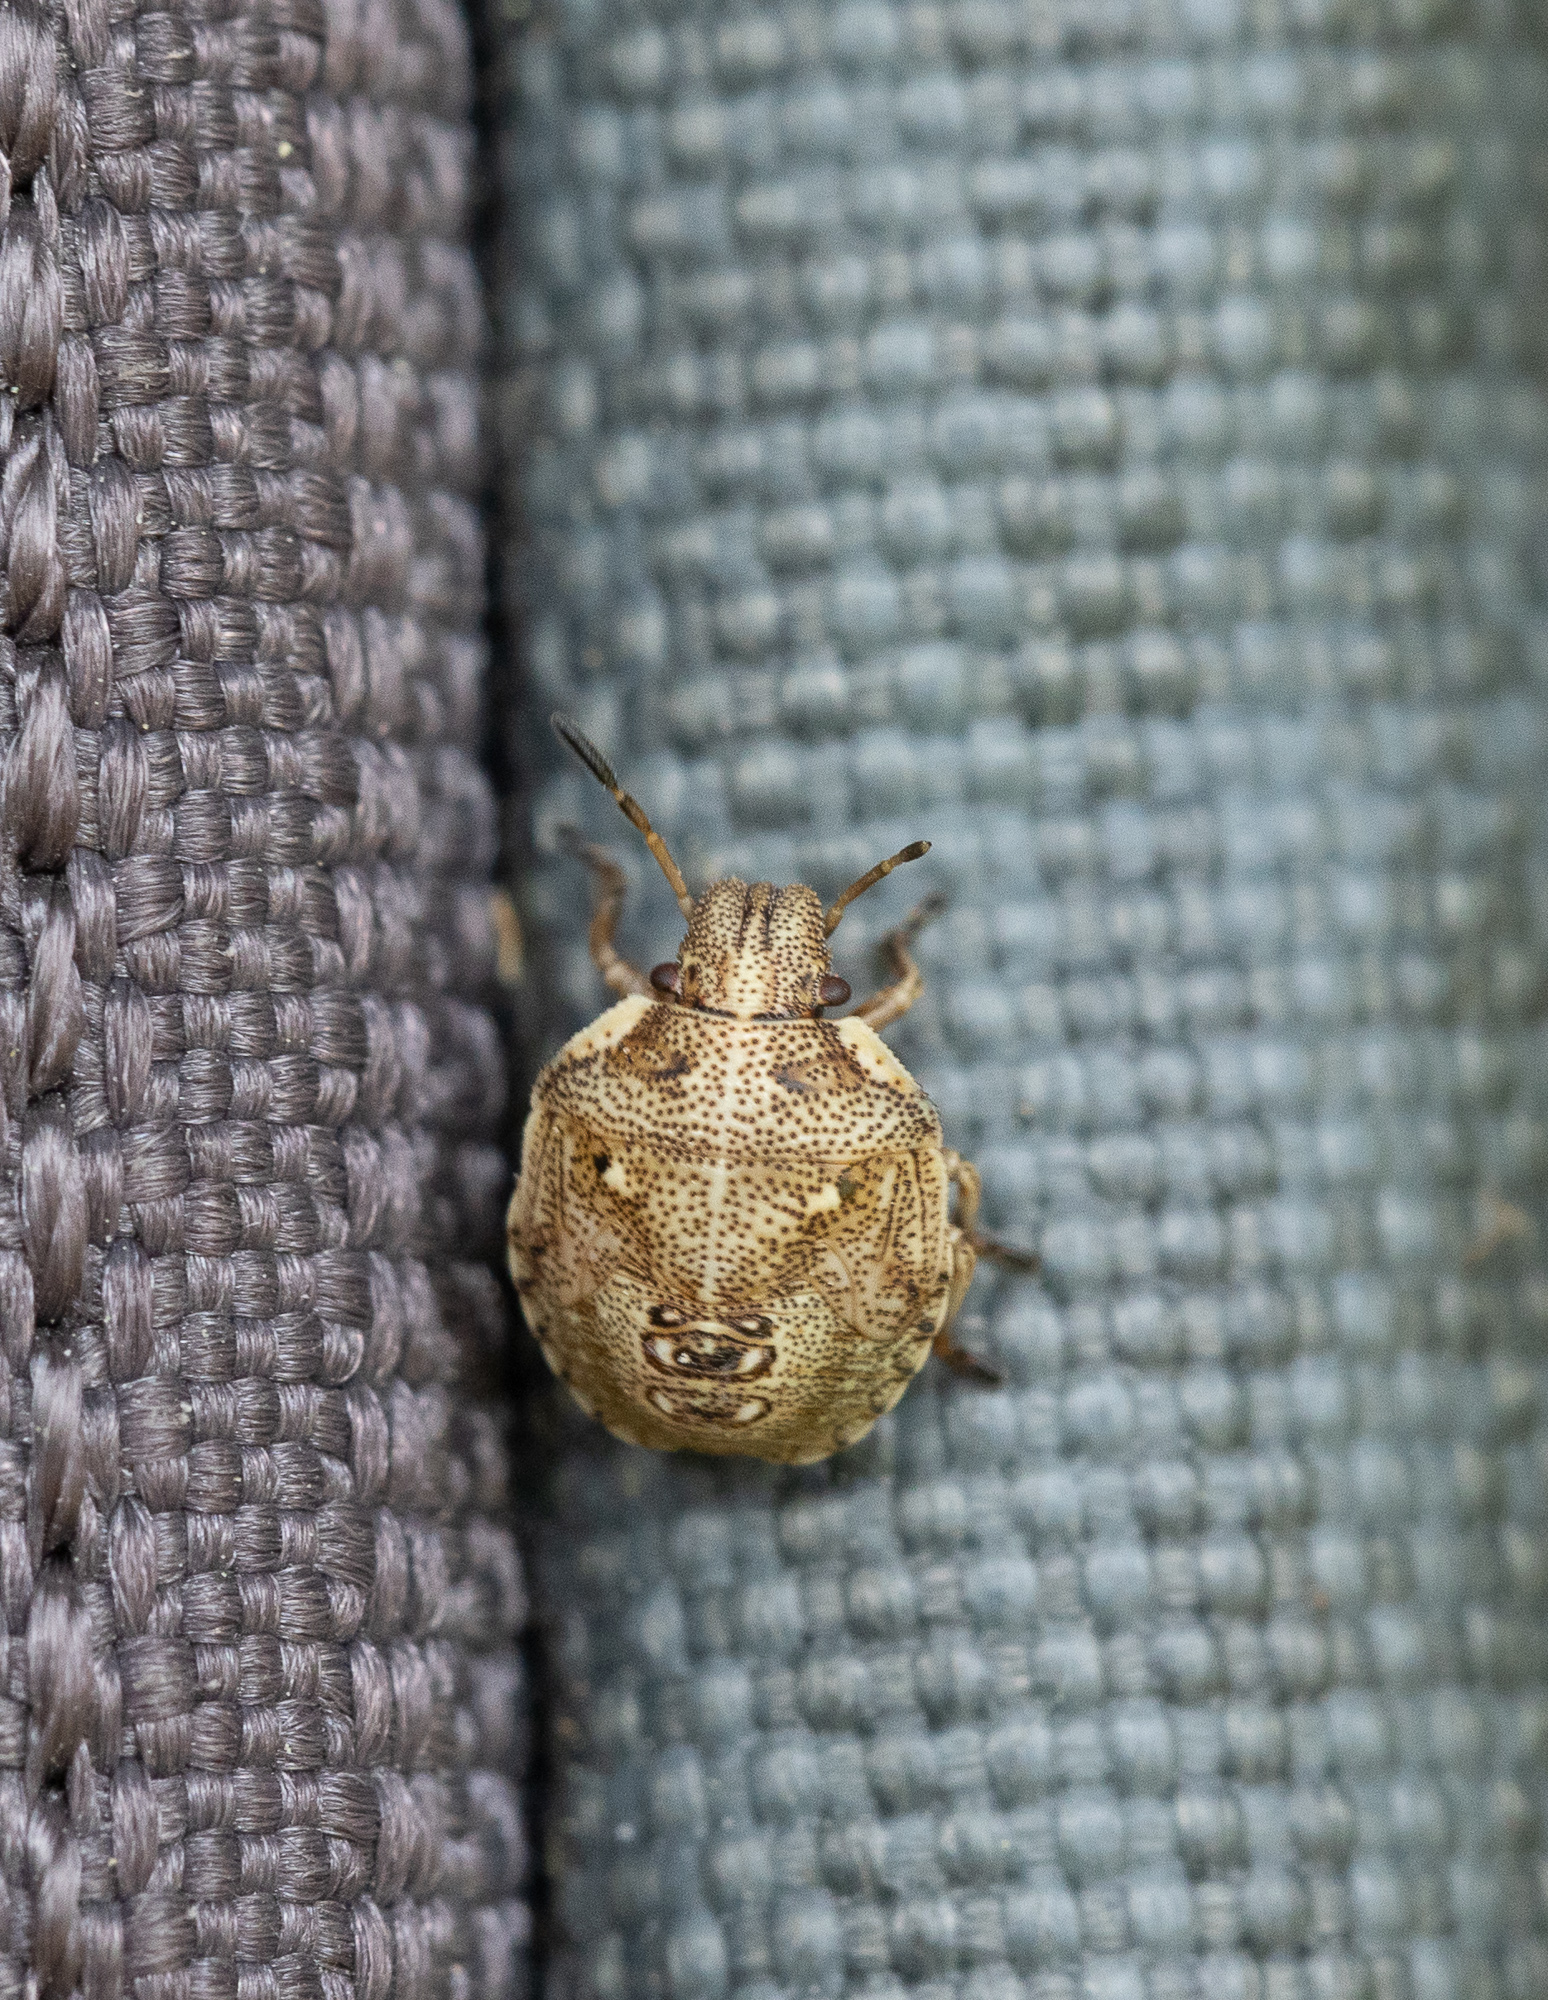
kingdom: Animalia
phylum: Arthropoda
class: Insecta
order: Hemiptera
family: Pentatomidae
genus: Eysarcoris
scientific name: Eysarcoris aeneus
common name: New forest shieldbug
